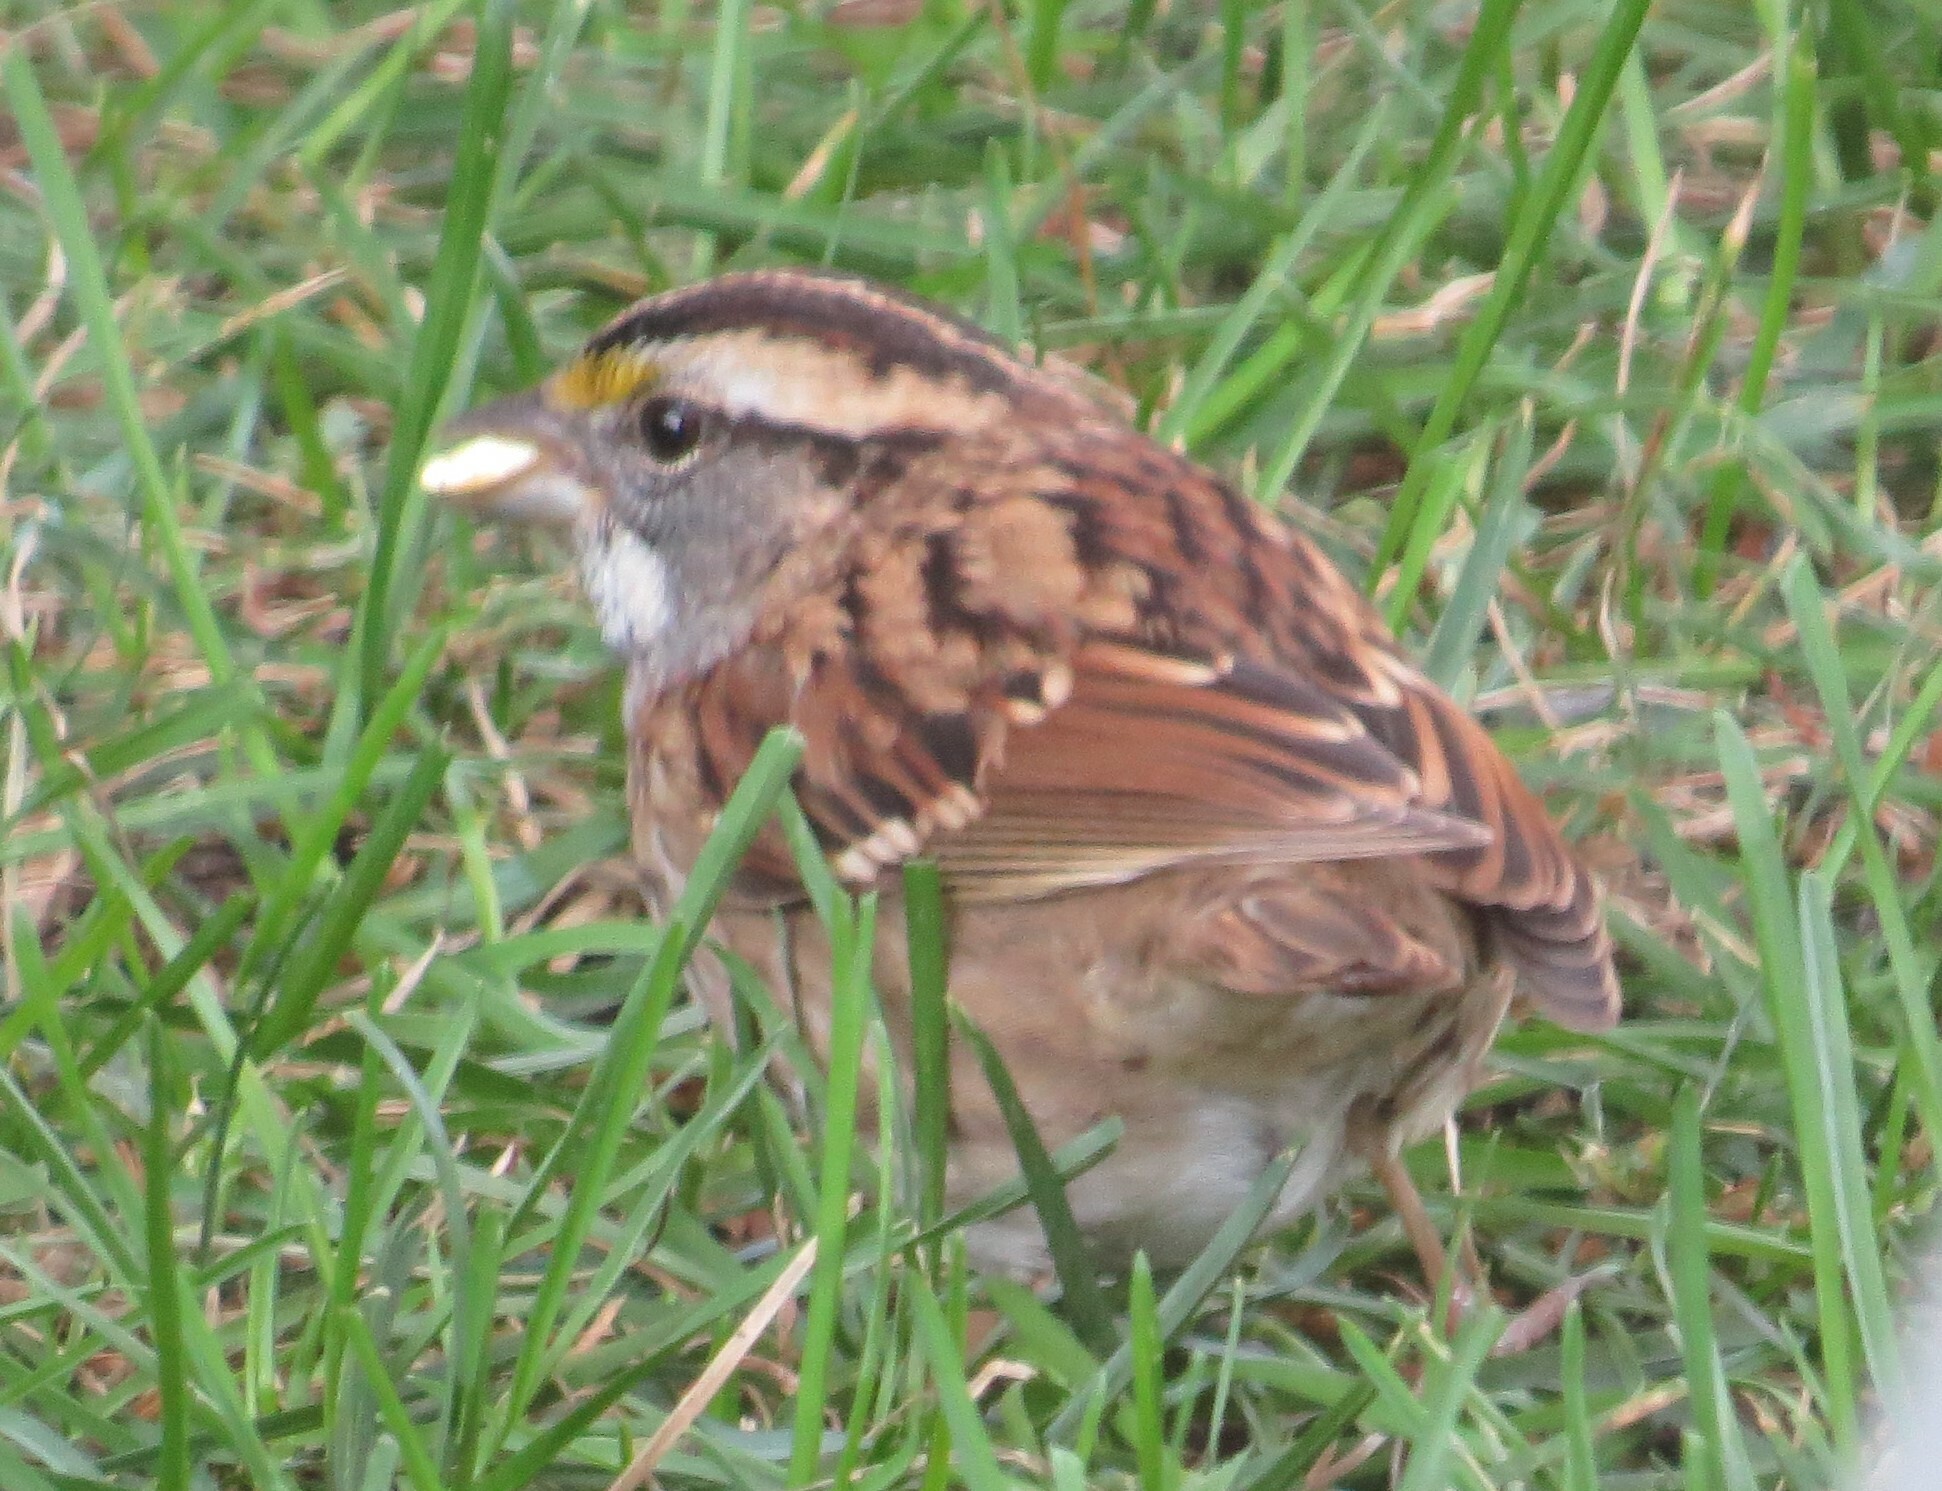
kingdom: Animalia
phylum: Chordata
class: Aves
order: Passeriformes
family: Passerellidae
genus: Zonotrichia
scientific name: Zonotrichia albicollis
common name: White-throated sparrow
